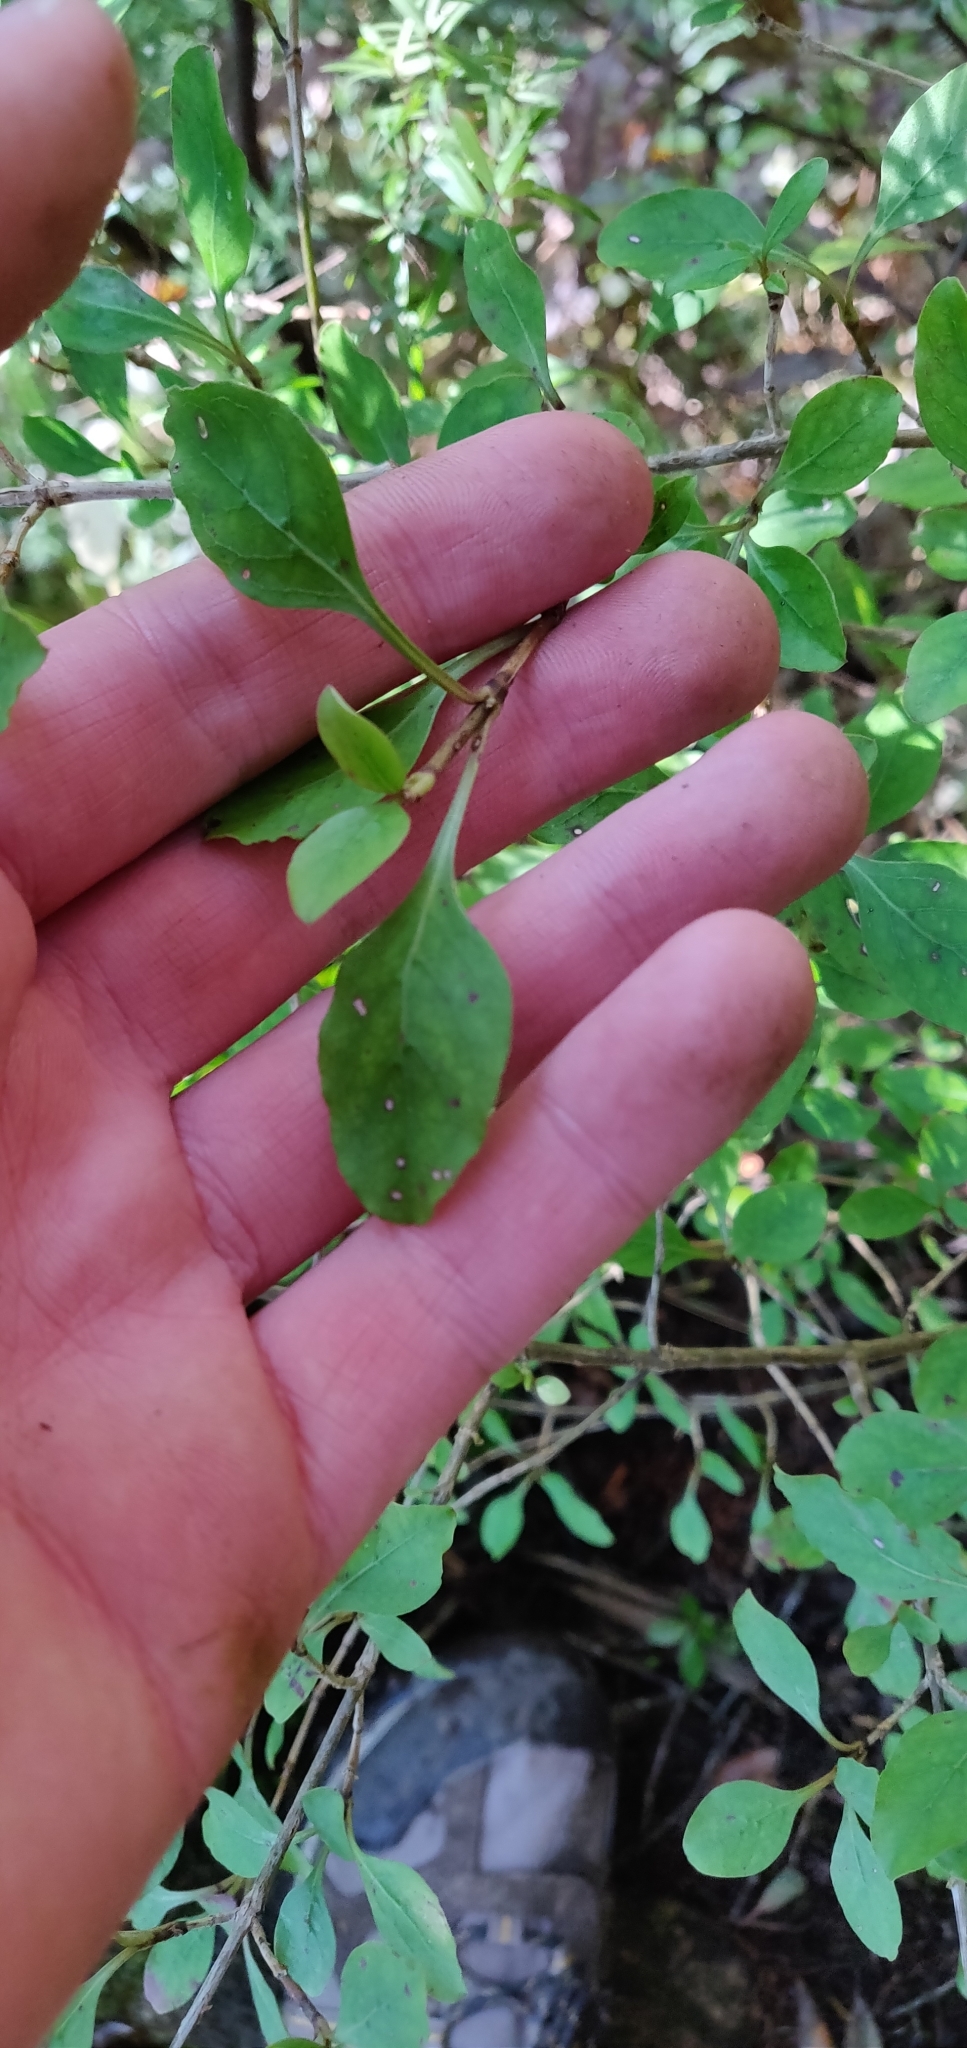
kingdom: Plantae
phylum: Tracheophyta
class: Magnoliopsida
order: Gentianales
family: Rubiaceae
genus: Coprosma
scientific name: Coprosma foetidissima
